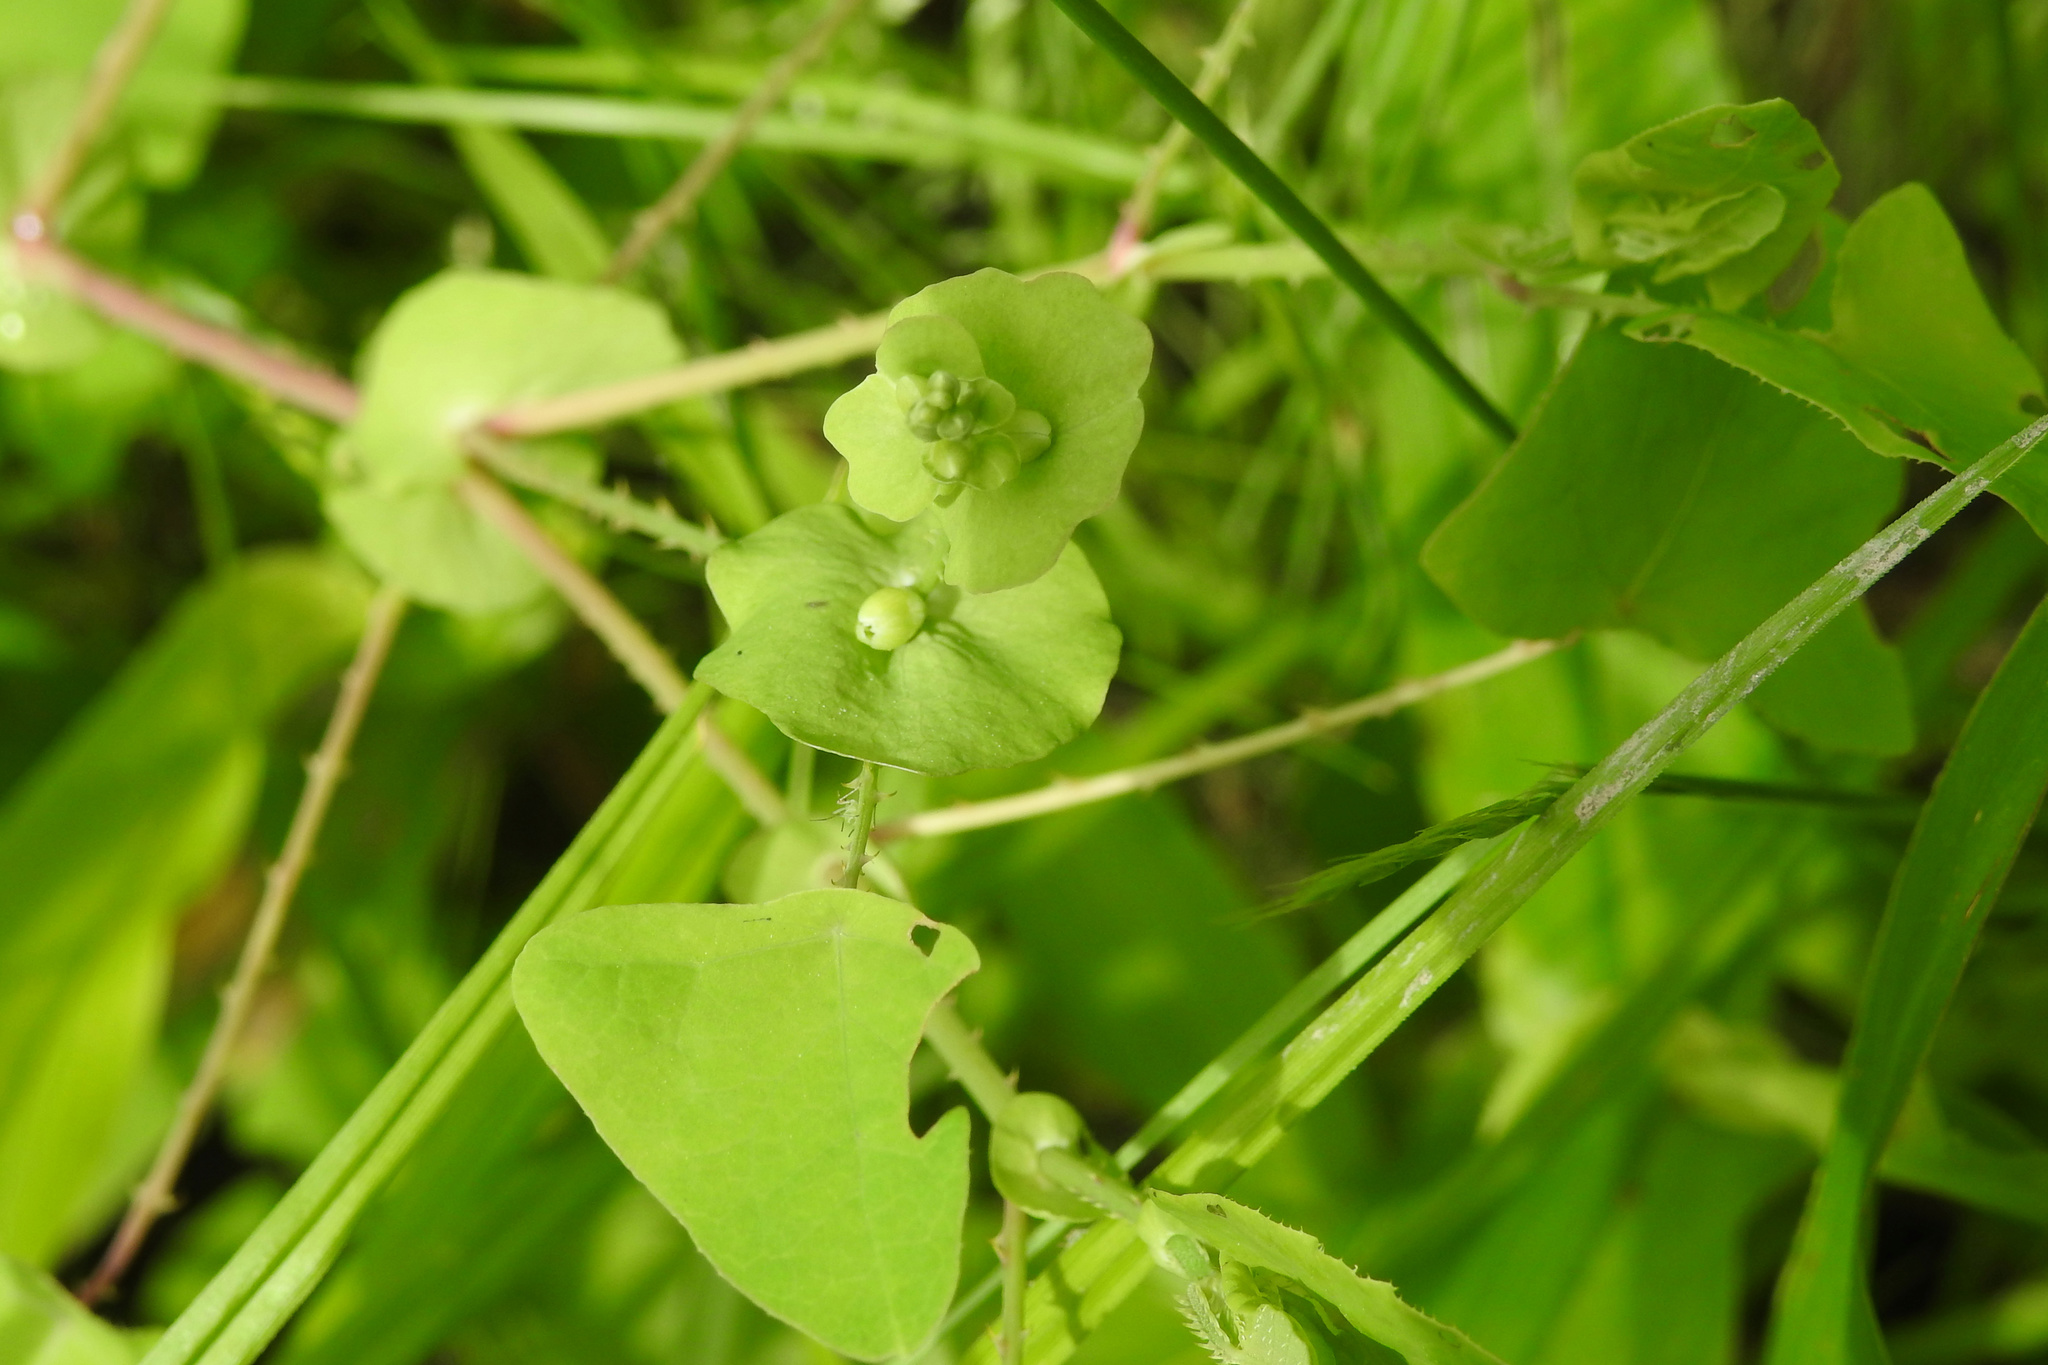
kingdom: Plantae
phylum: Tracheophyta
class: Magnoliopsida
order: Caryophyllales
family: Polygonaceae
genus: Persicaria
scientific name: Persicaria perfoliata
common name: Asiatic tearthumb
